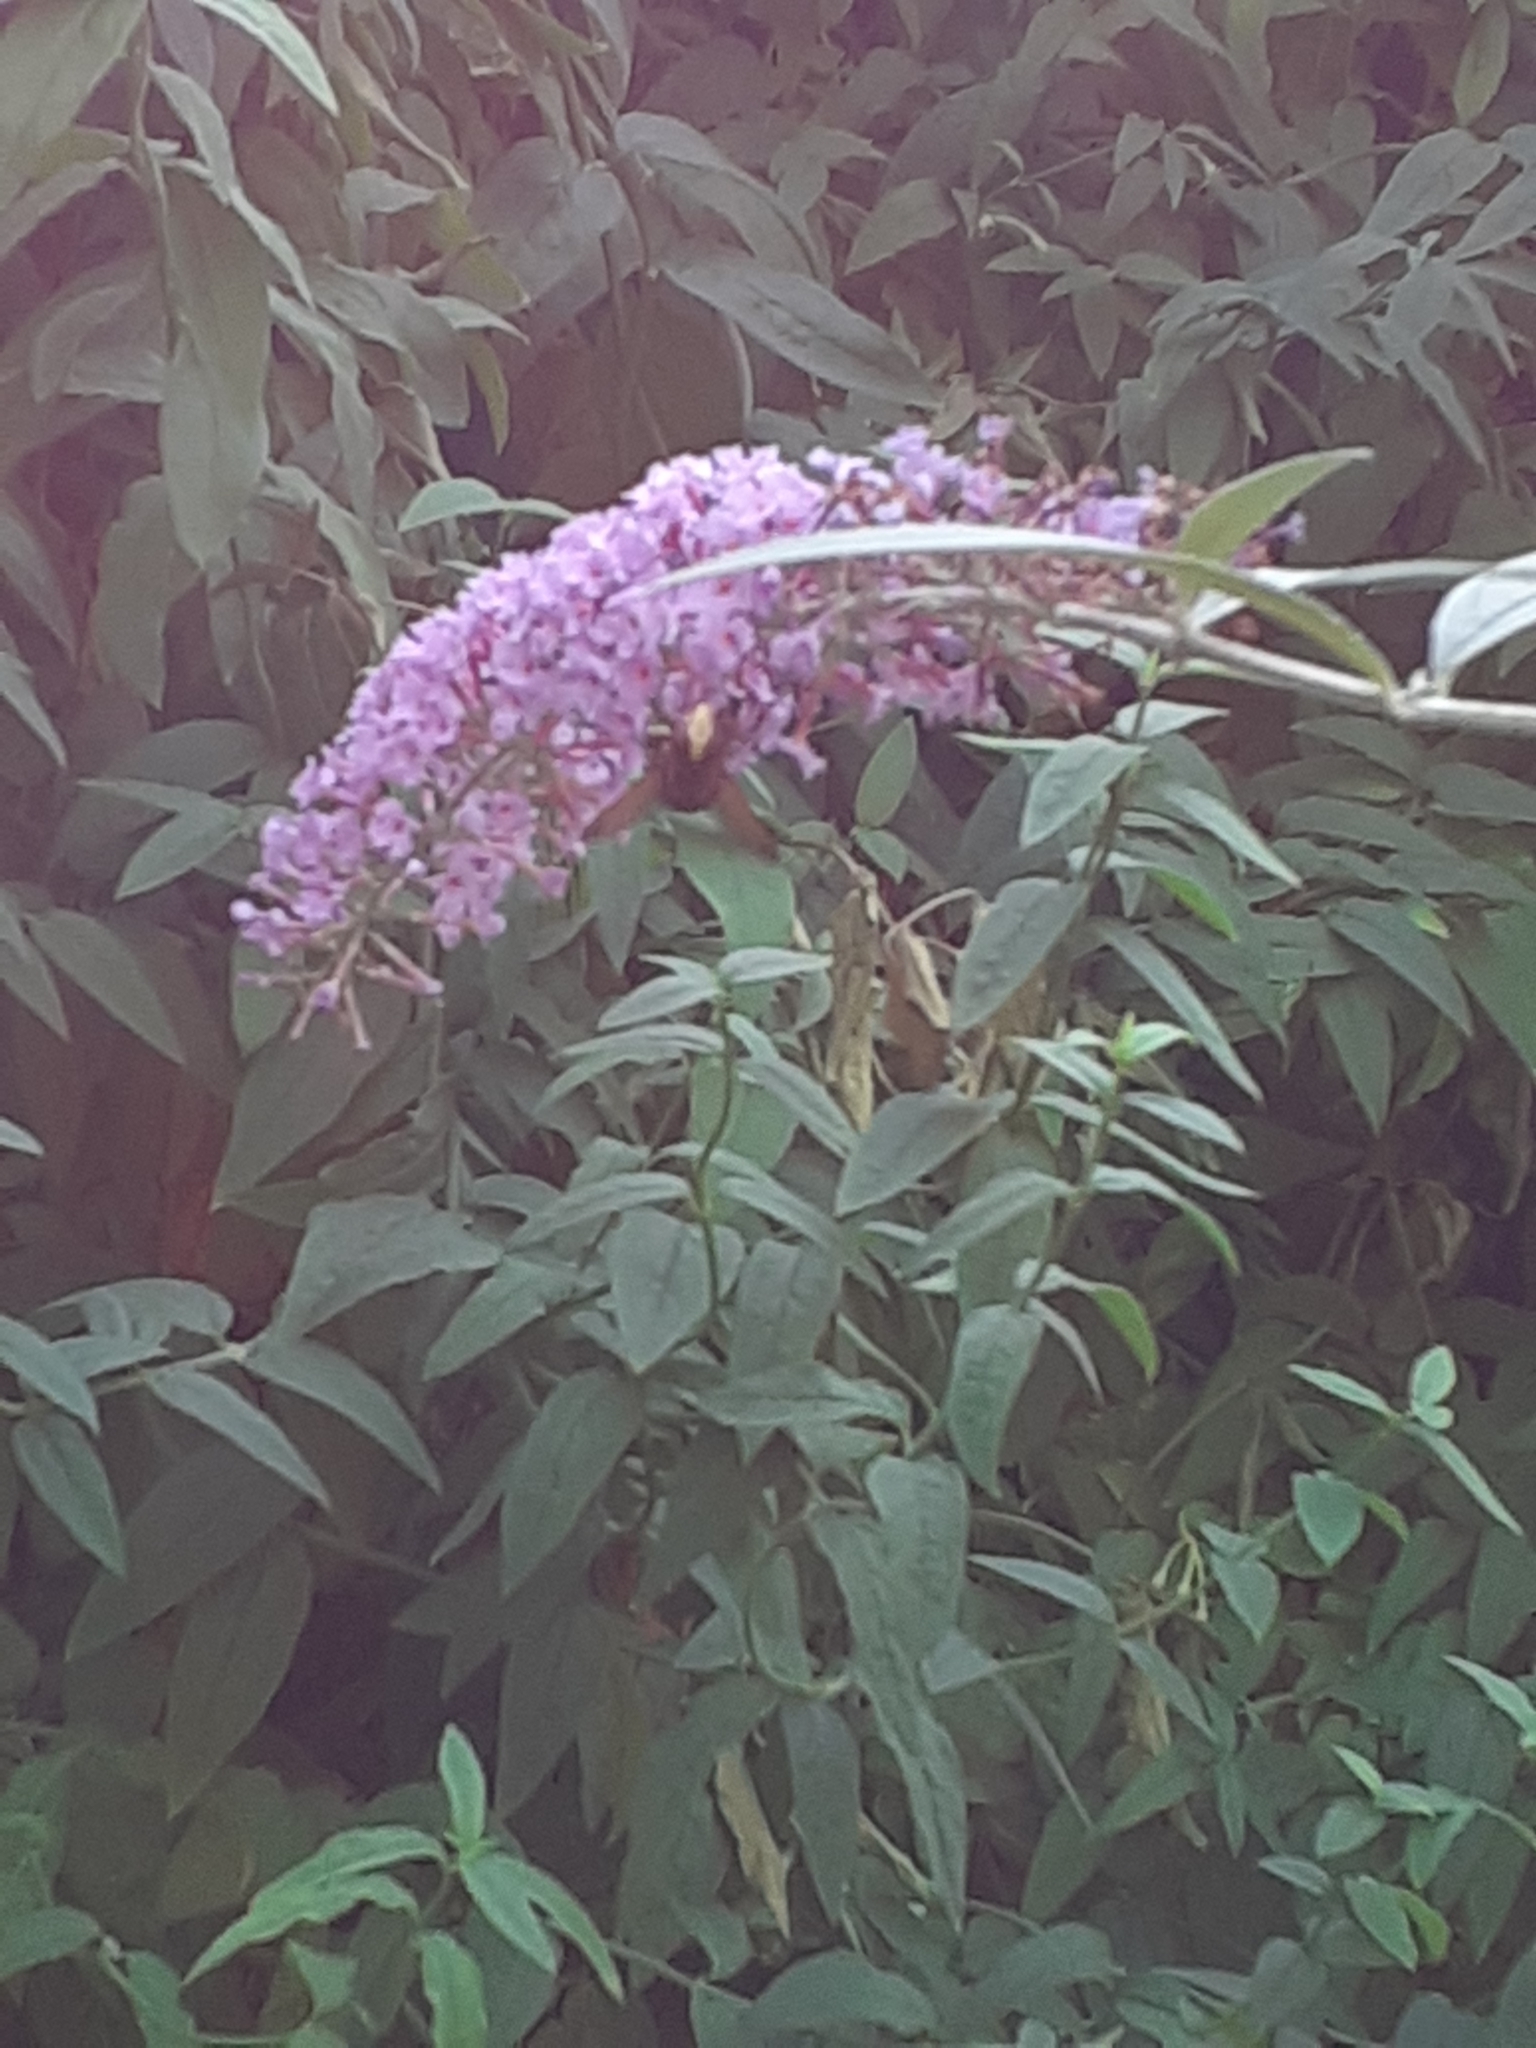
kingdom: Animalia
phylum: Arthropoda
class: Insecta
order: Diptera
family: Syrphidae
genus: Volucella
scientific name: Volucella
